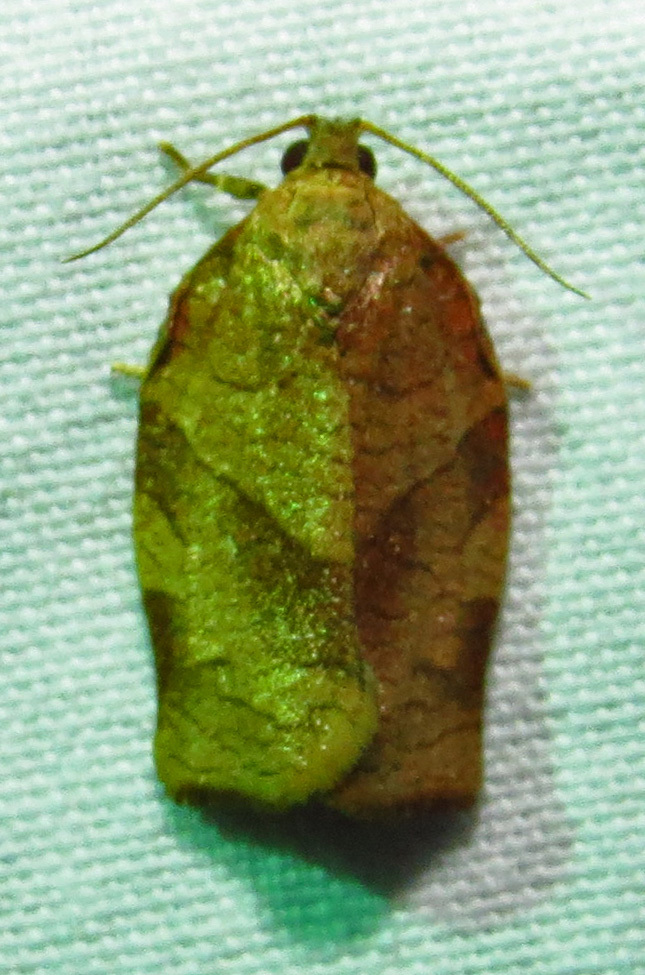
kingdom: Animalia
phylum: Arthropoda
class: Insecta
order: Lepidoptera
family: Tortricidae
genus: Choristoneura
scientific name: Choristoneura rosaceana
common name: Oblique-banded leafroller moth
